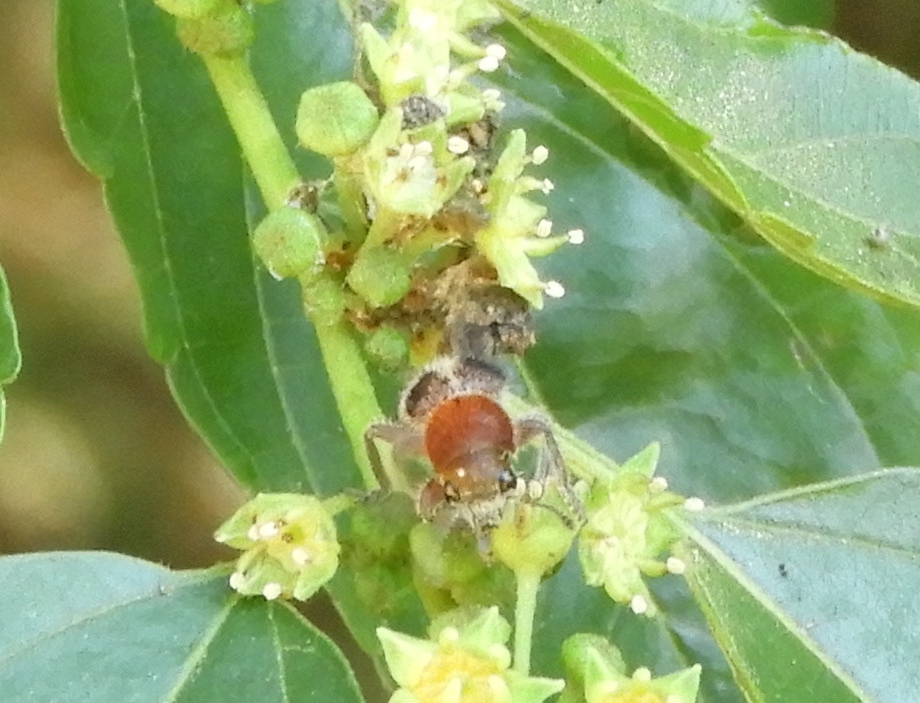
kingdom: Animalia
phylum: Arthropoda
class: Insecta
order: Coleoptera
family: Cleridae
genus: Enoclerus
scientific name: Enoclerus quadriguttatus
